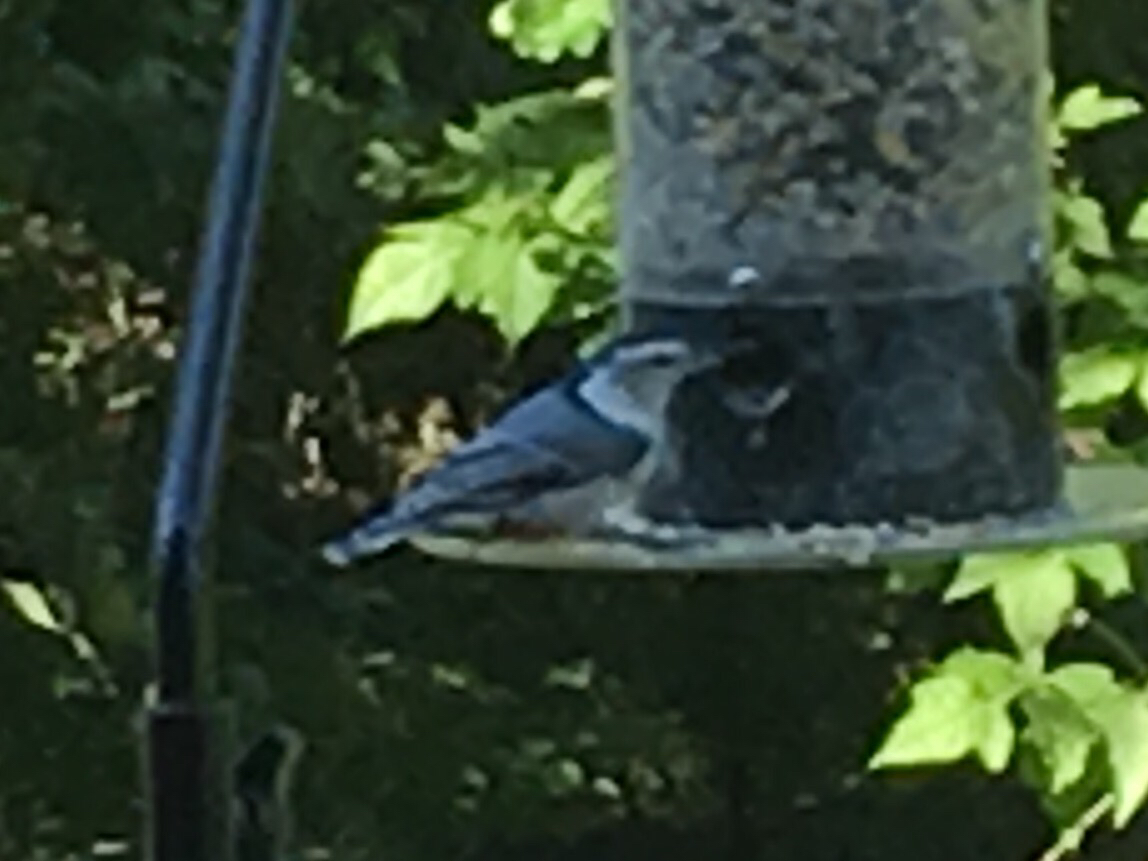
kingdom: Animalia
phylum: Chordata
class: Aves
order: Passeriformes
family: Sittidae
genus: Sitta
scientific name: Sitta carolinensis
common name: White-breasted nuthatch
